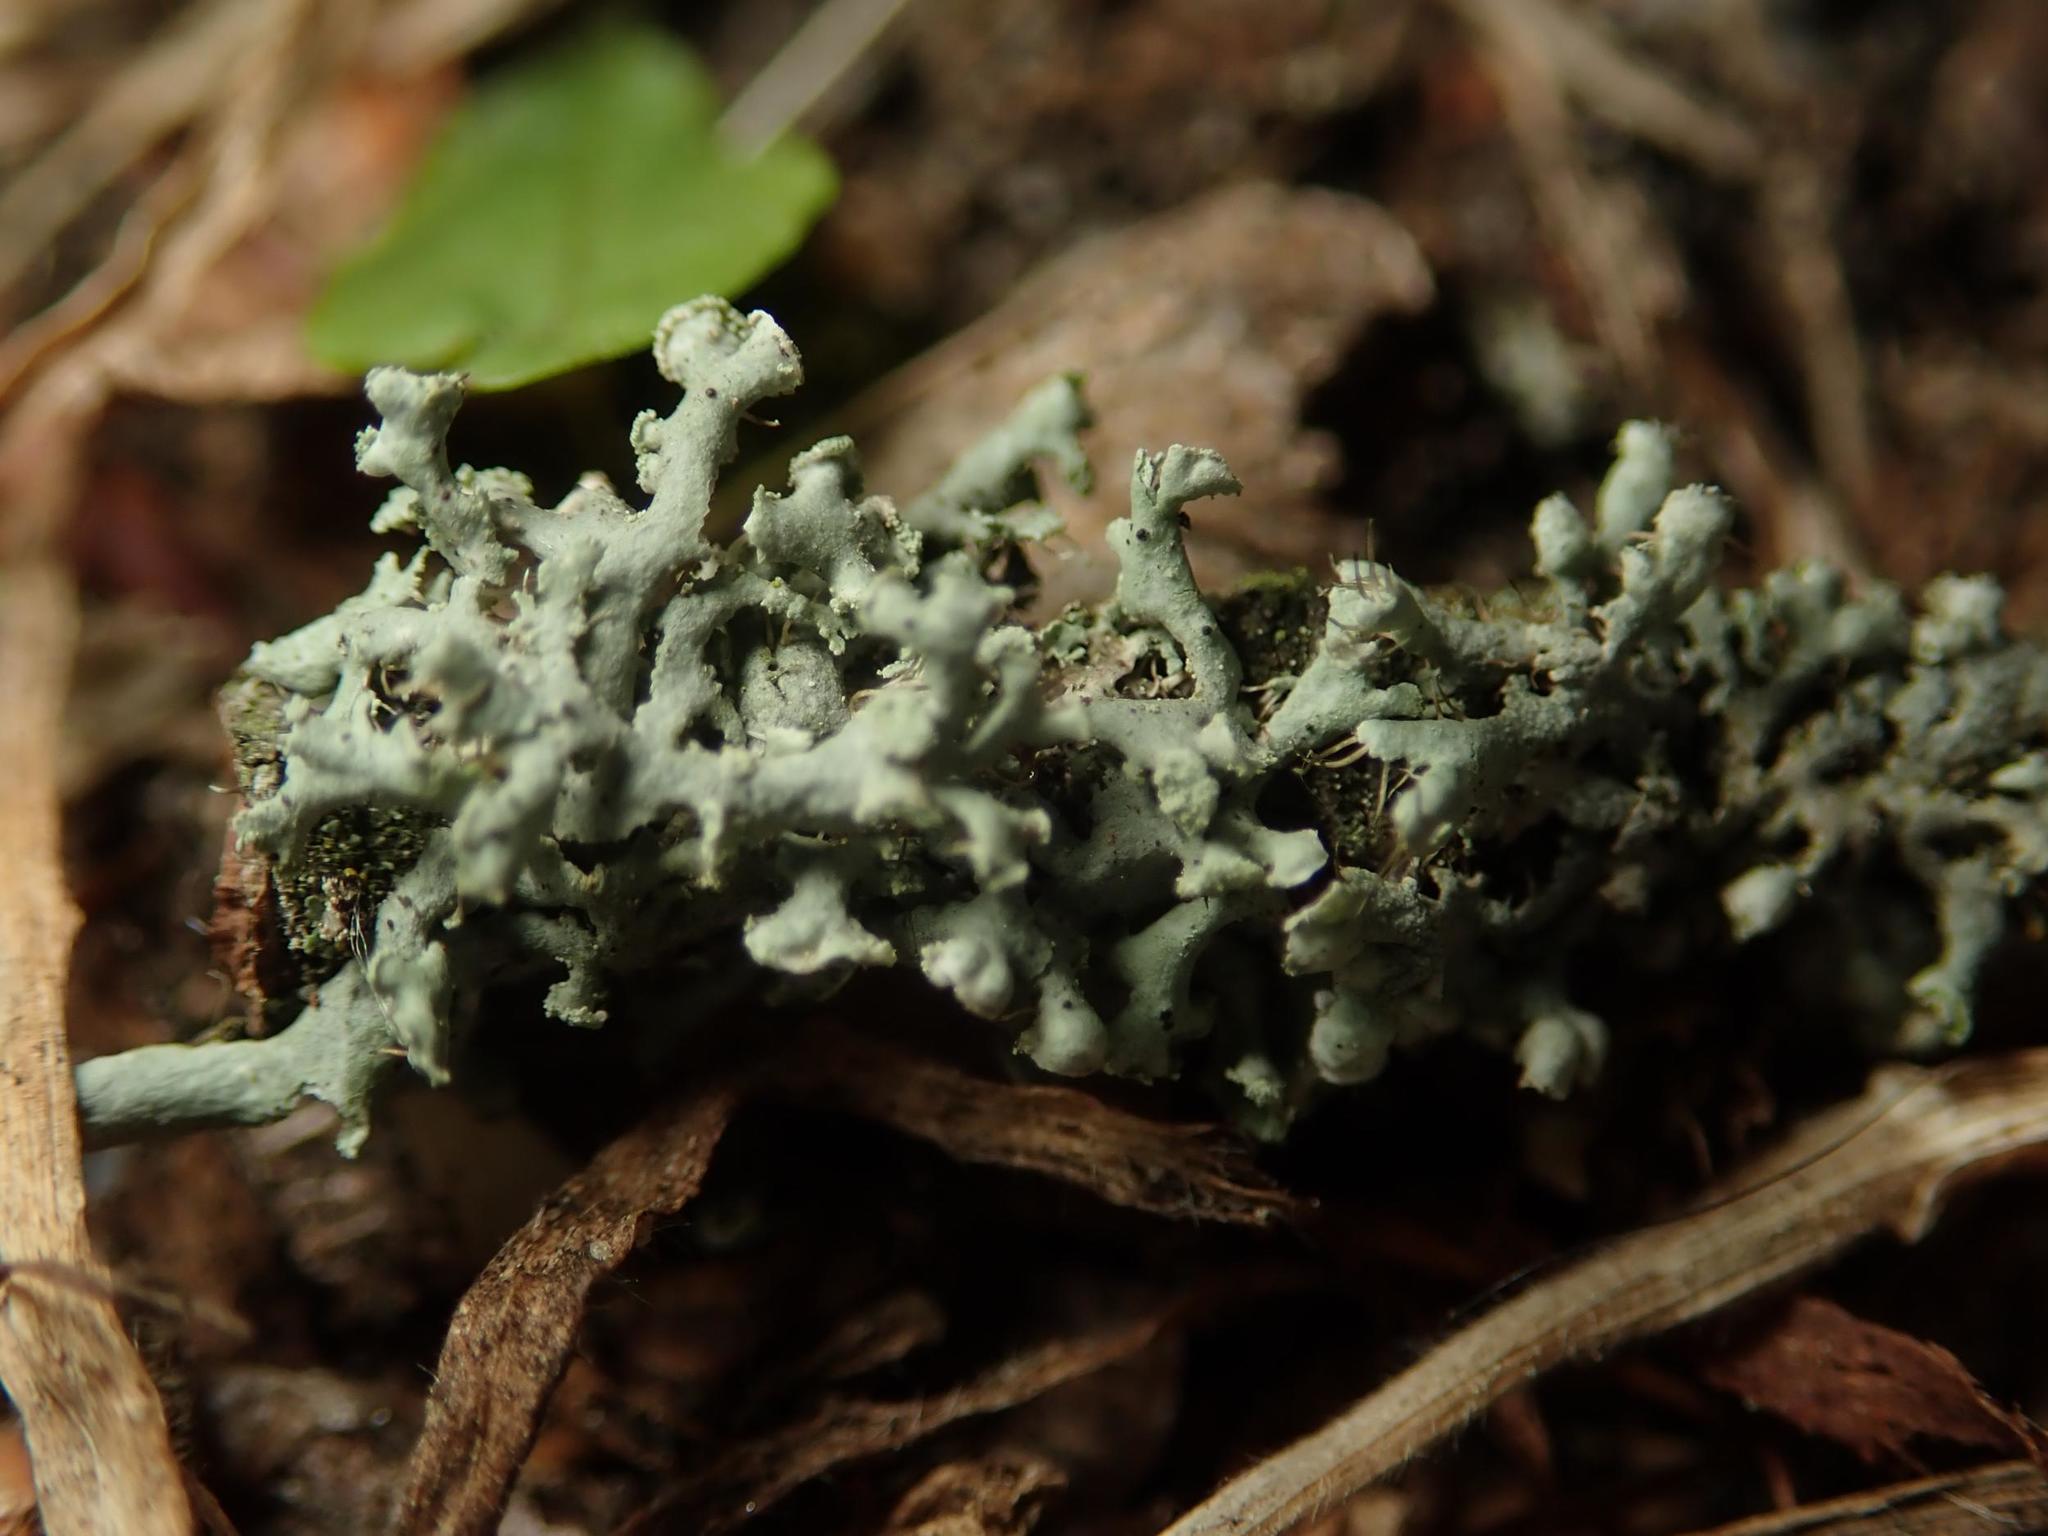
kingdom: Fungi
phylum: Ascomycota
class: Lecanoromycetes
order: Caliciales
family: Physciaceae
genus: Physcia
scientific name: Physcia adscendens
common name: Hooded rosette lichen
